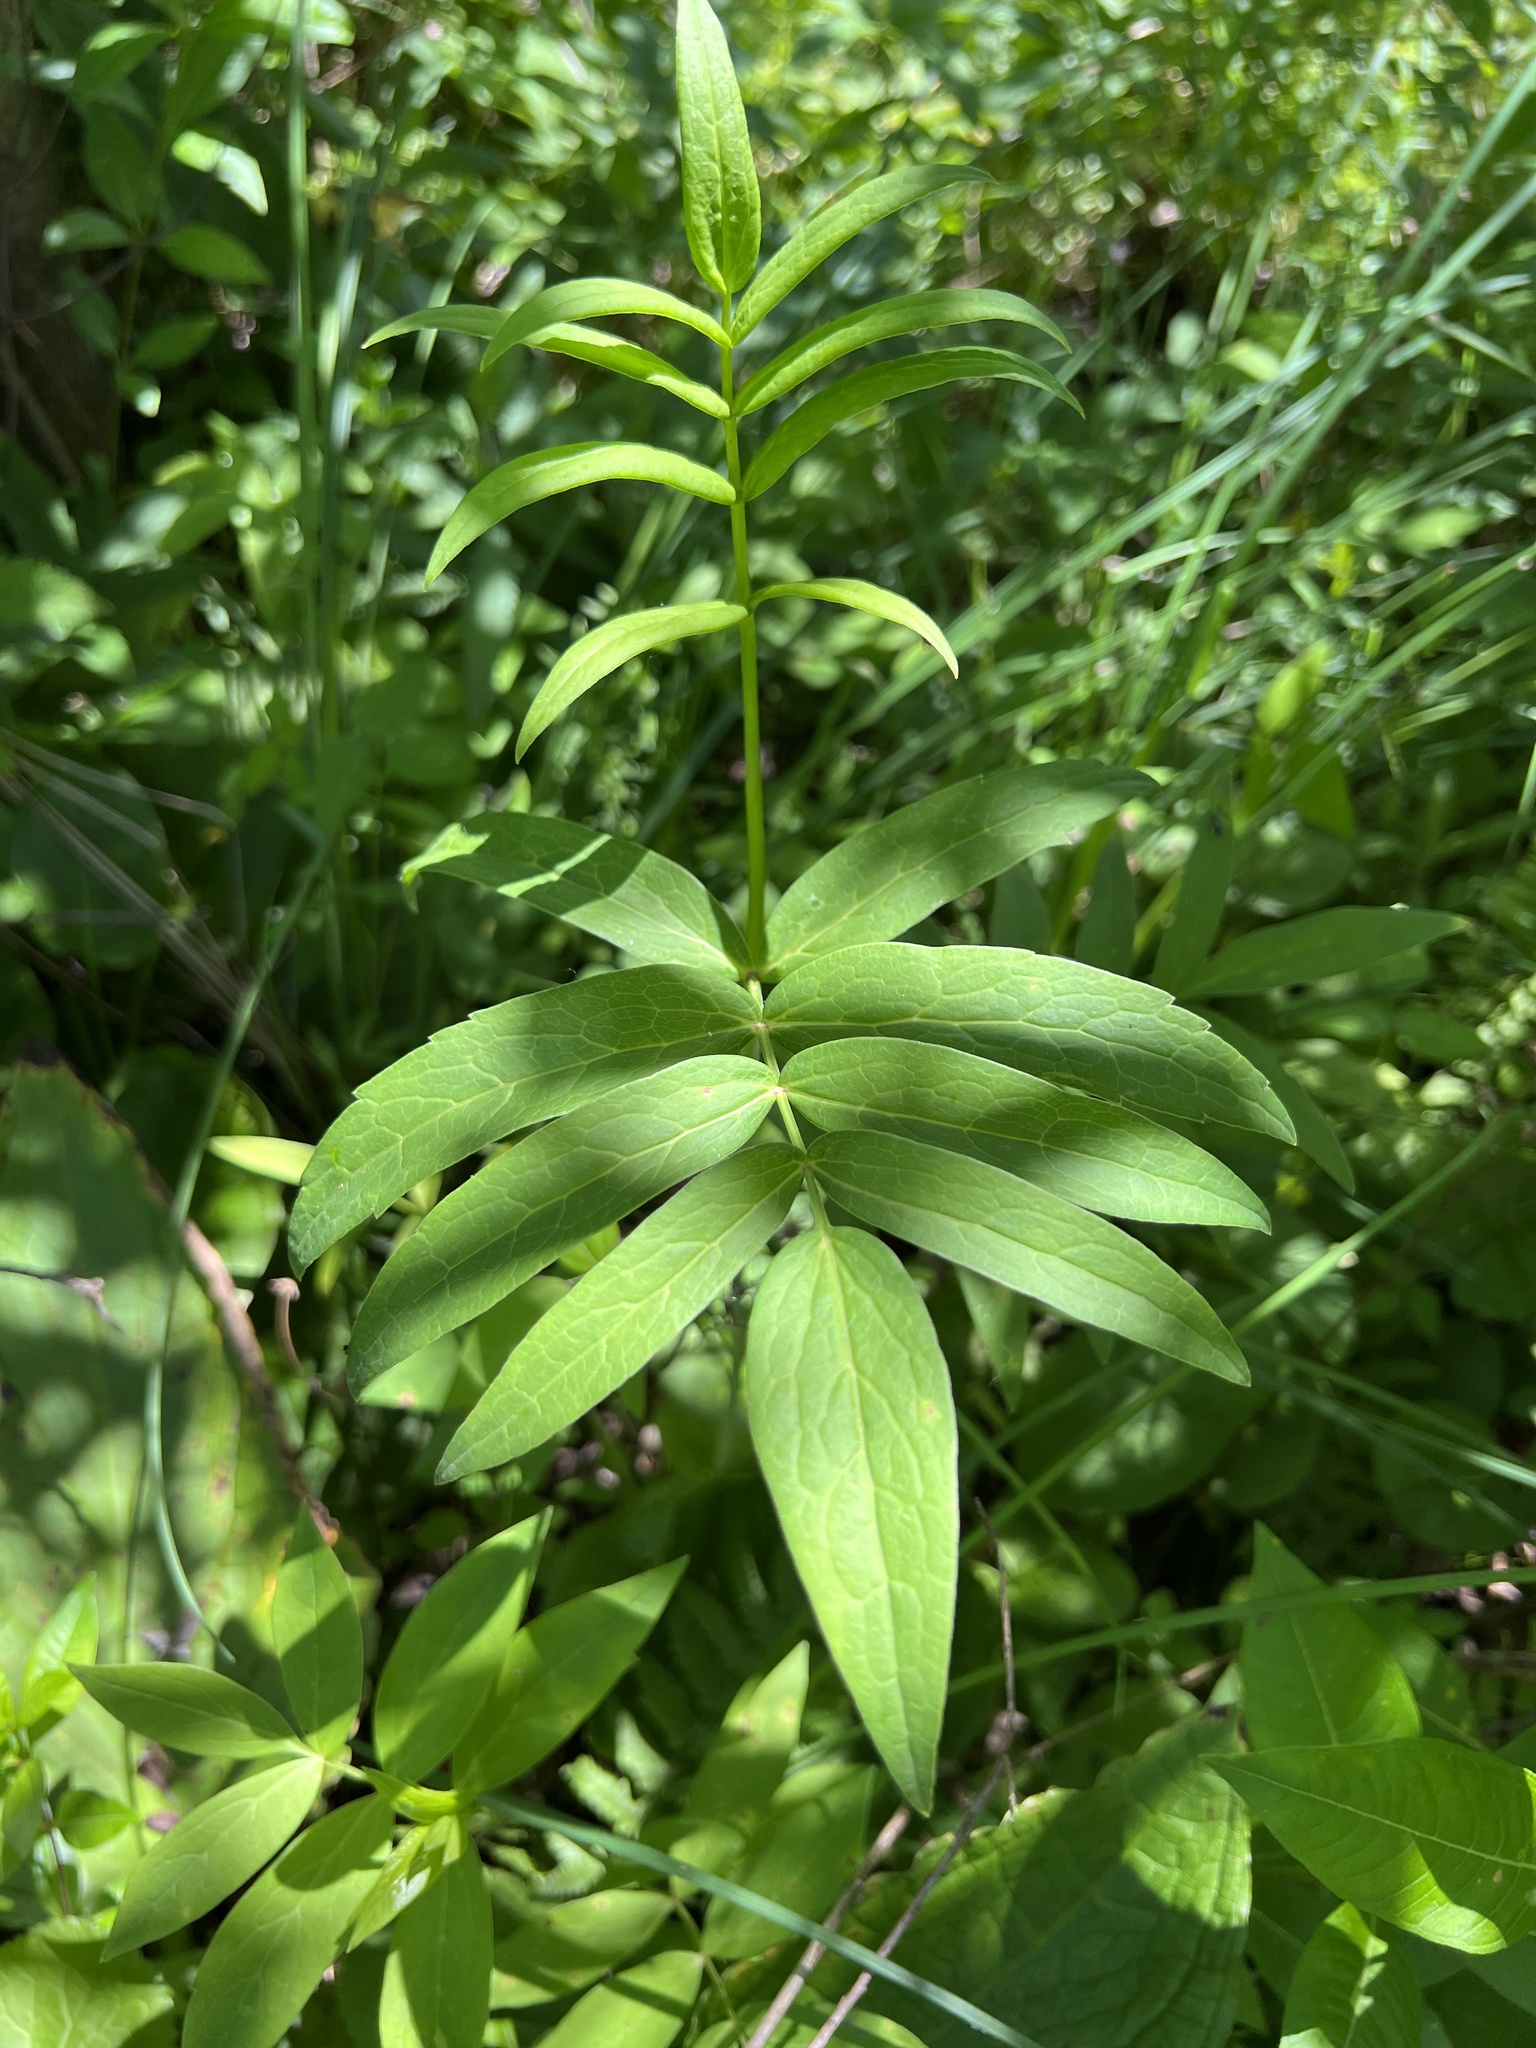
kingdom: Plantae
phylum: Tracheophyta
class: Magnoliopsida
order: Apiales
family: Apiaceae
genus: Oxypolis
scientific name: Oxypolis rigidior
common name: Cowbane
